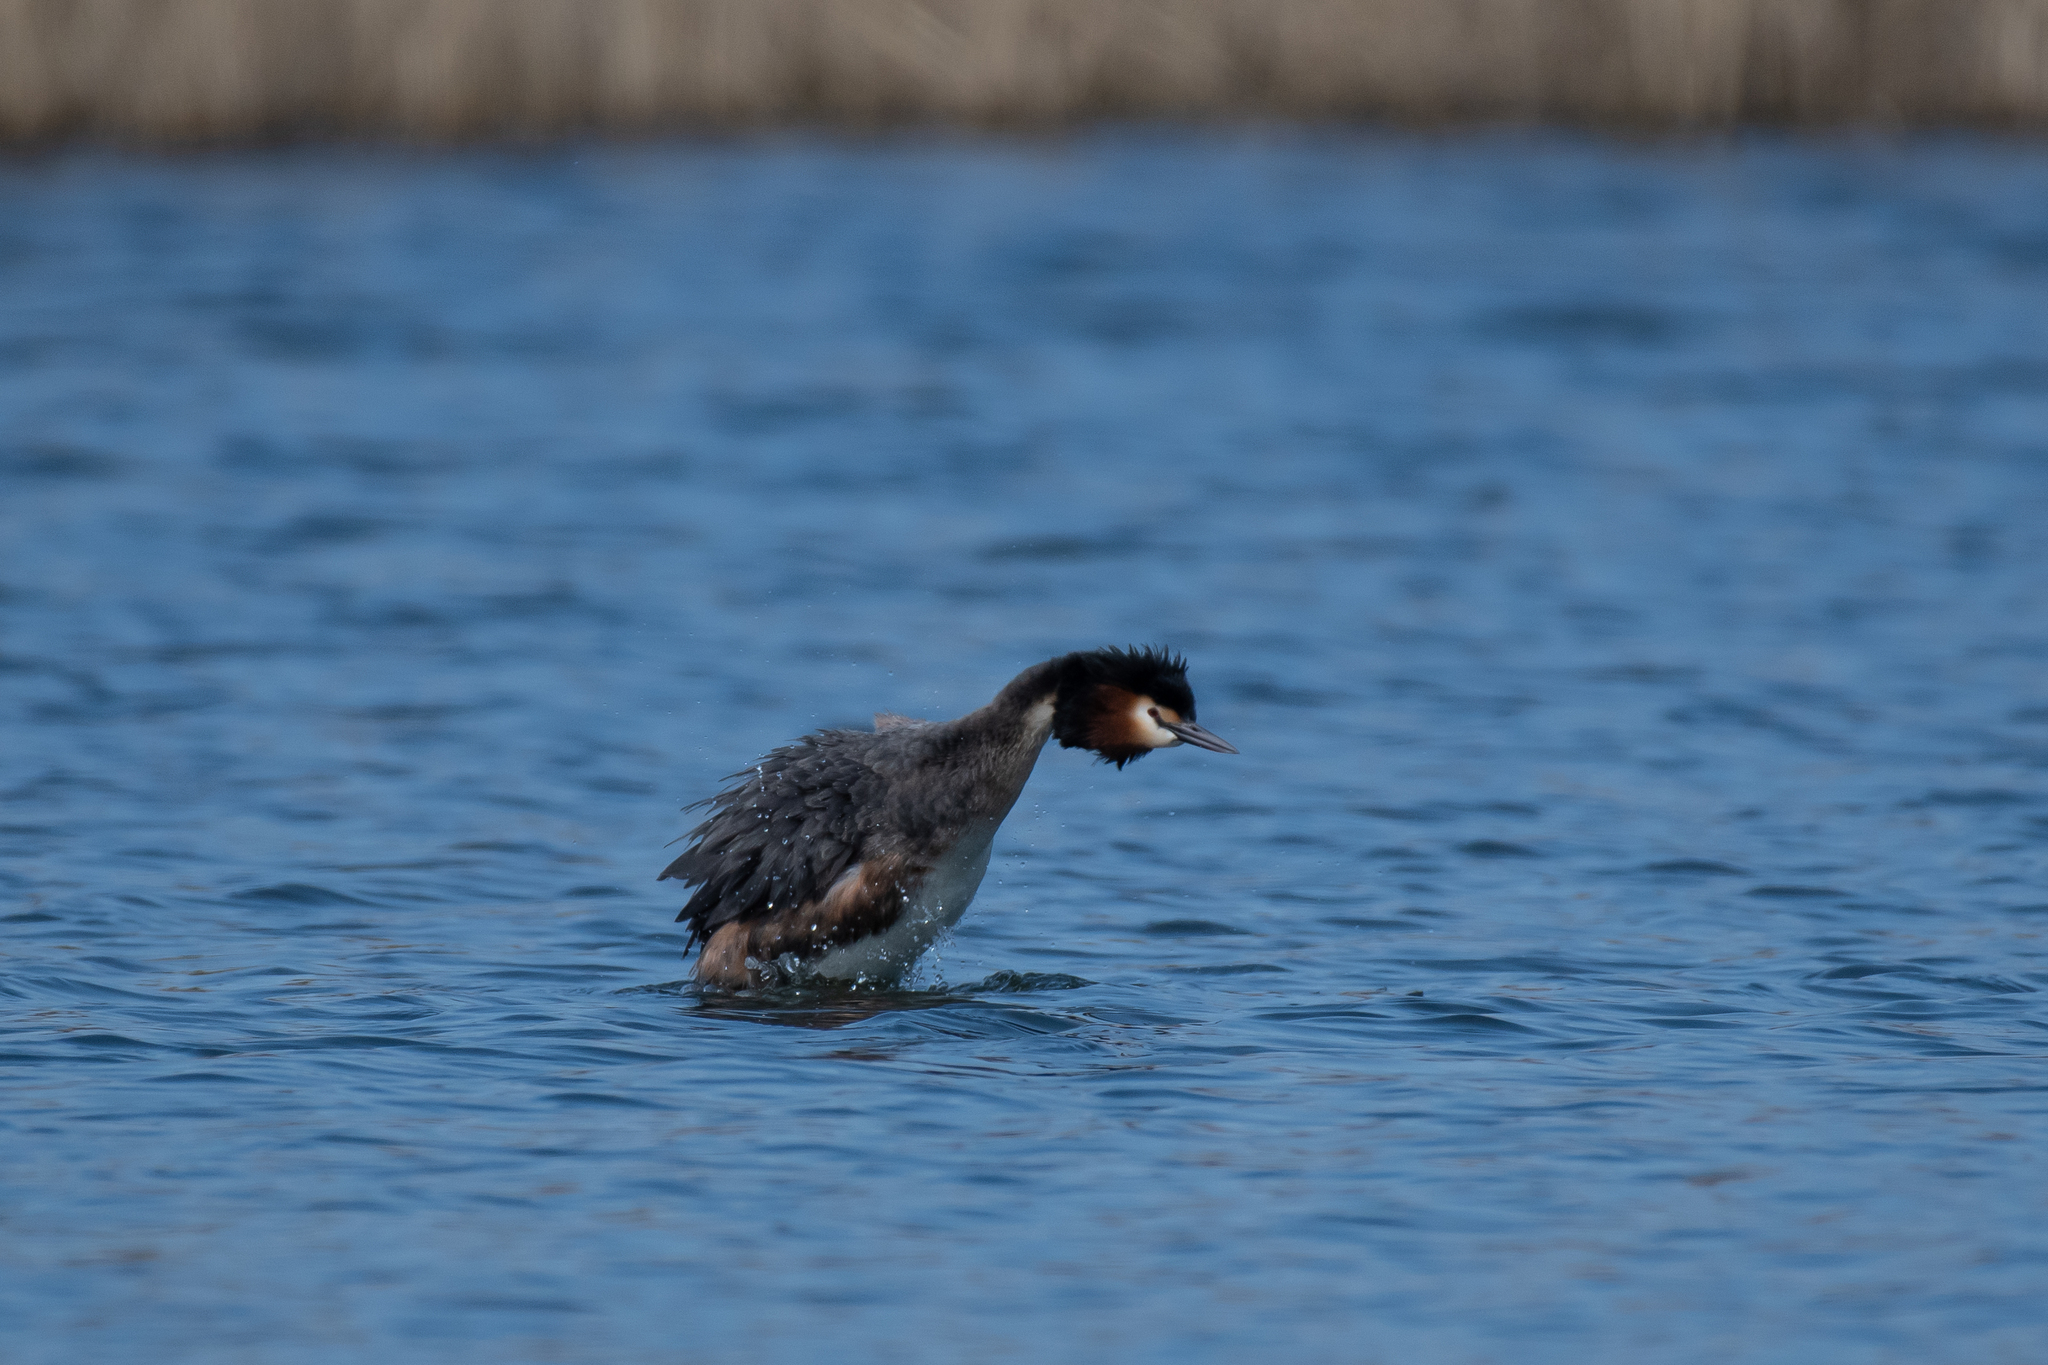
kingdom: Animalia
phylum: Chordata
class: Aves
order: Podicipediformes
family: Podicipedidae
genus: Podiceps
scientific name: Podiceps cristatus
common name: Great crested grebe
